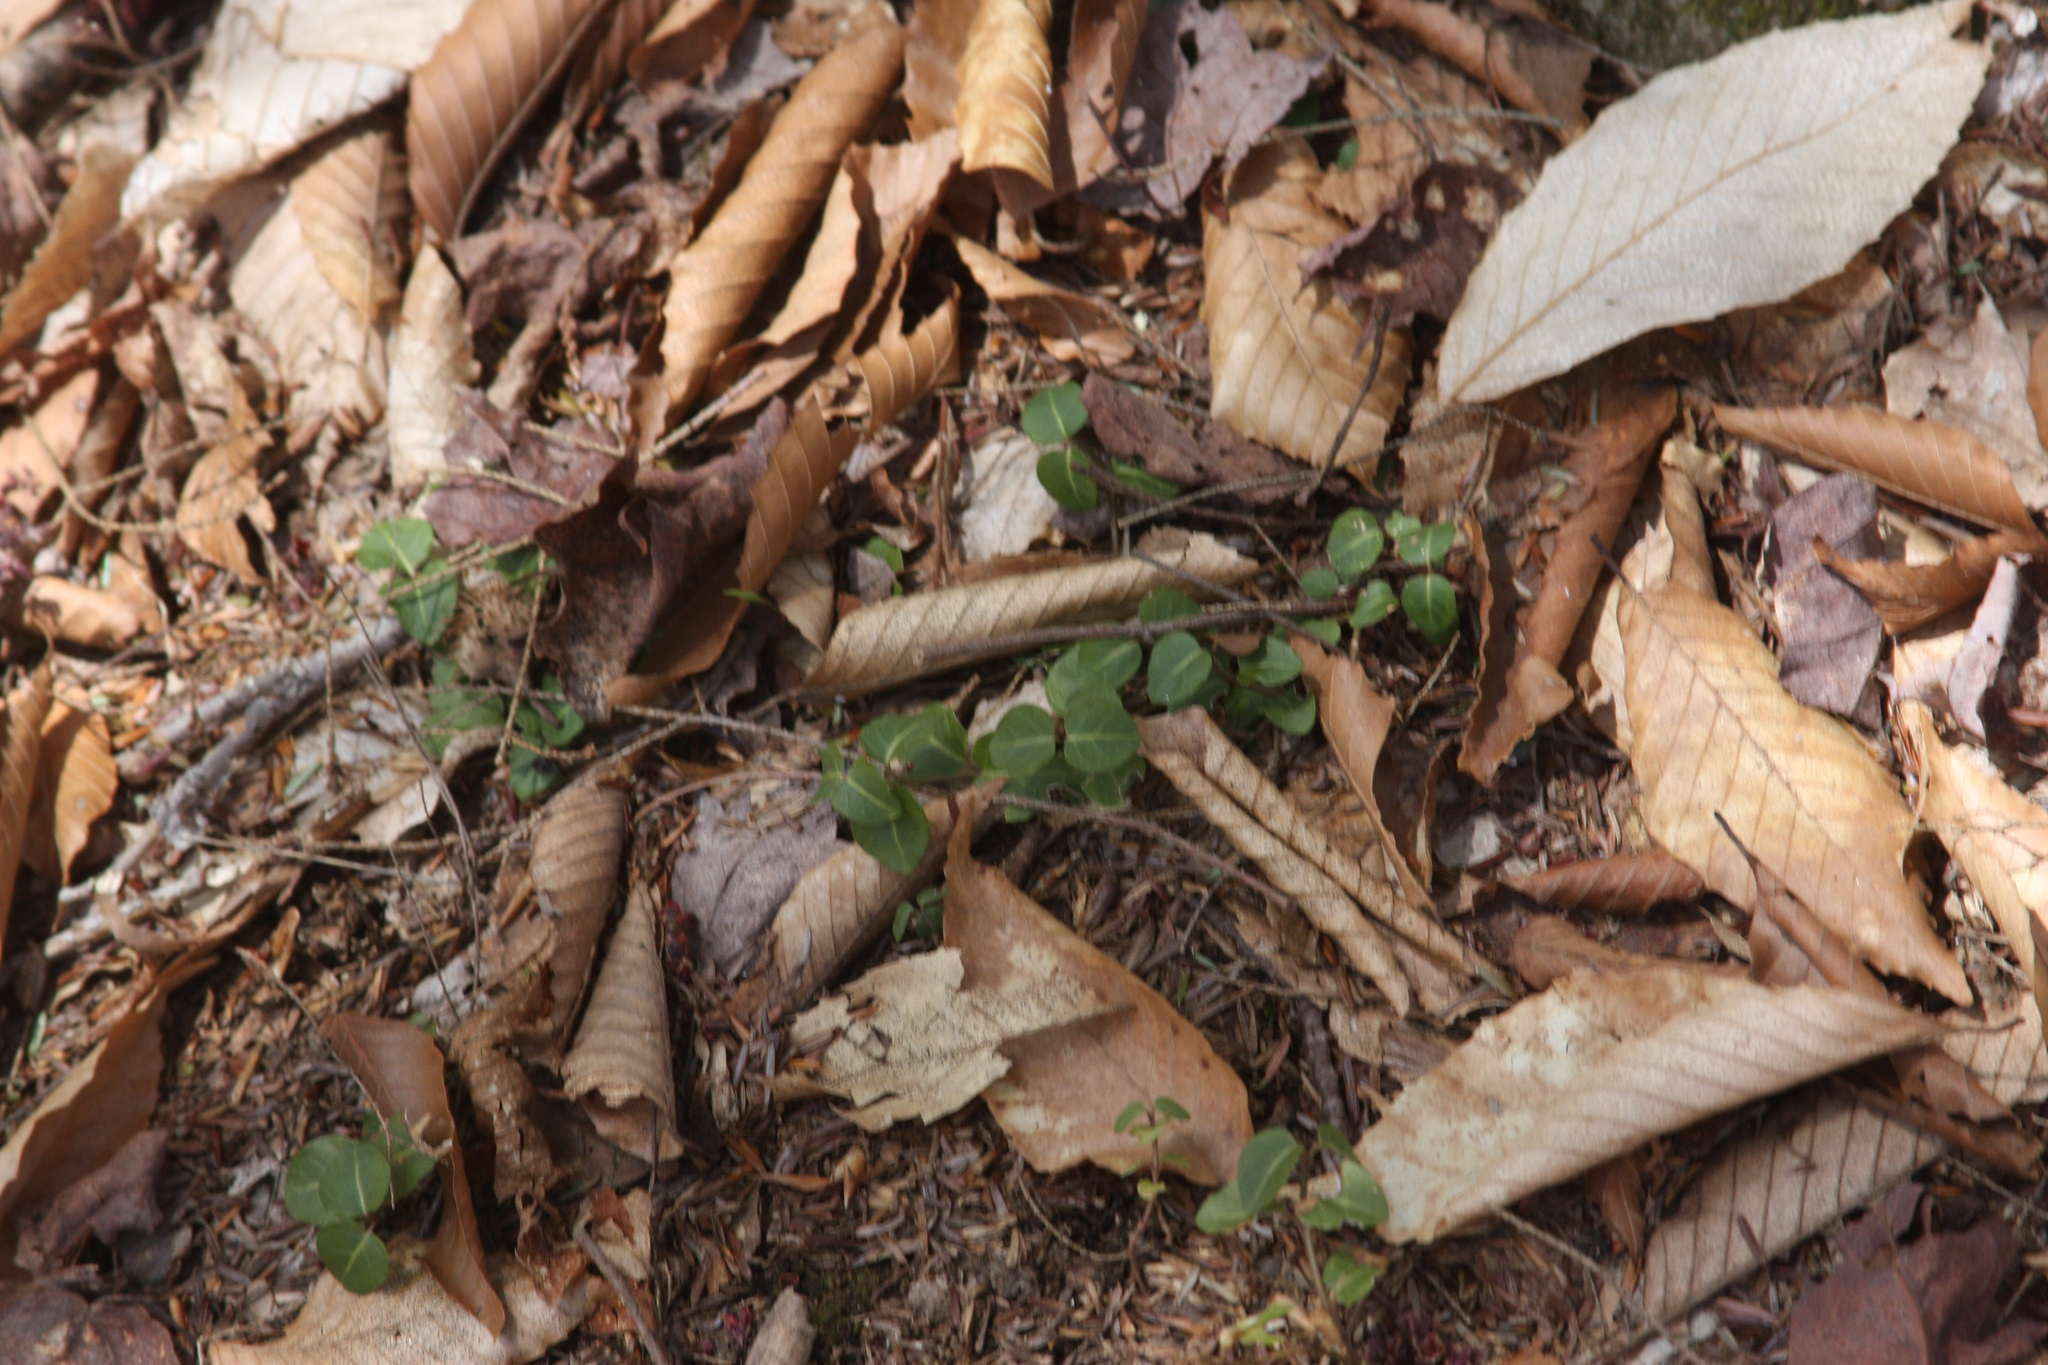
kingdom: Plantae
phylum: Tracheophyta
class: Magnoliopsida
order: Gentianales
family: Rubiaceae
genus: Mitchella
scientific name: Mitchella repens
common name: Partridge-berry
